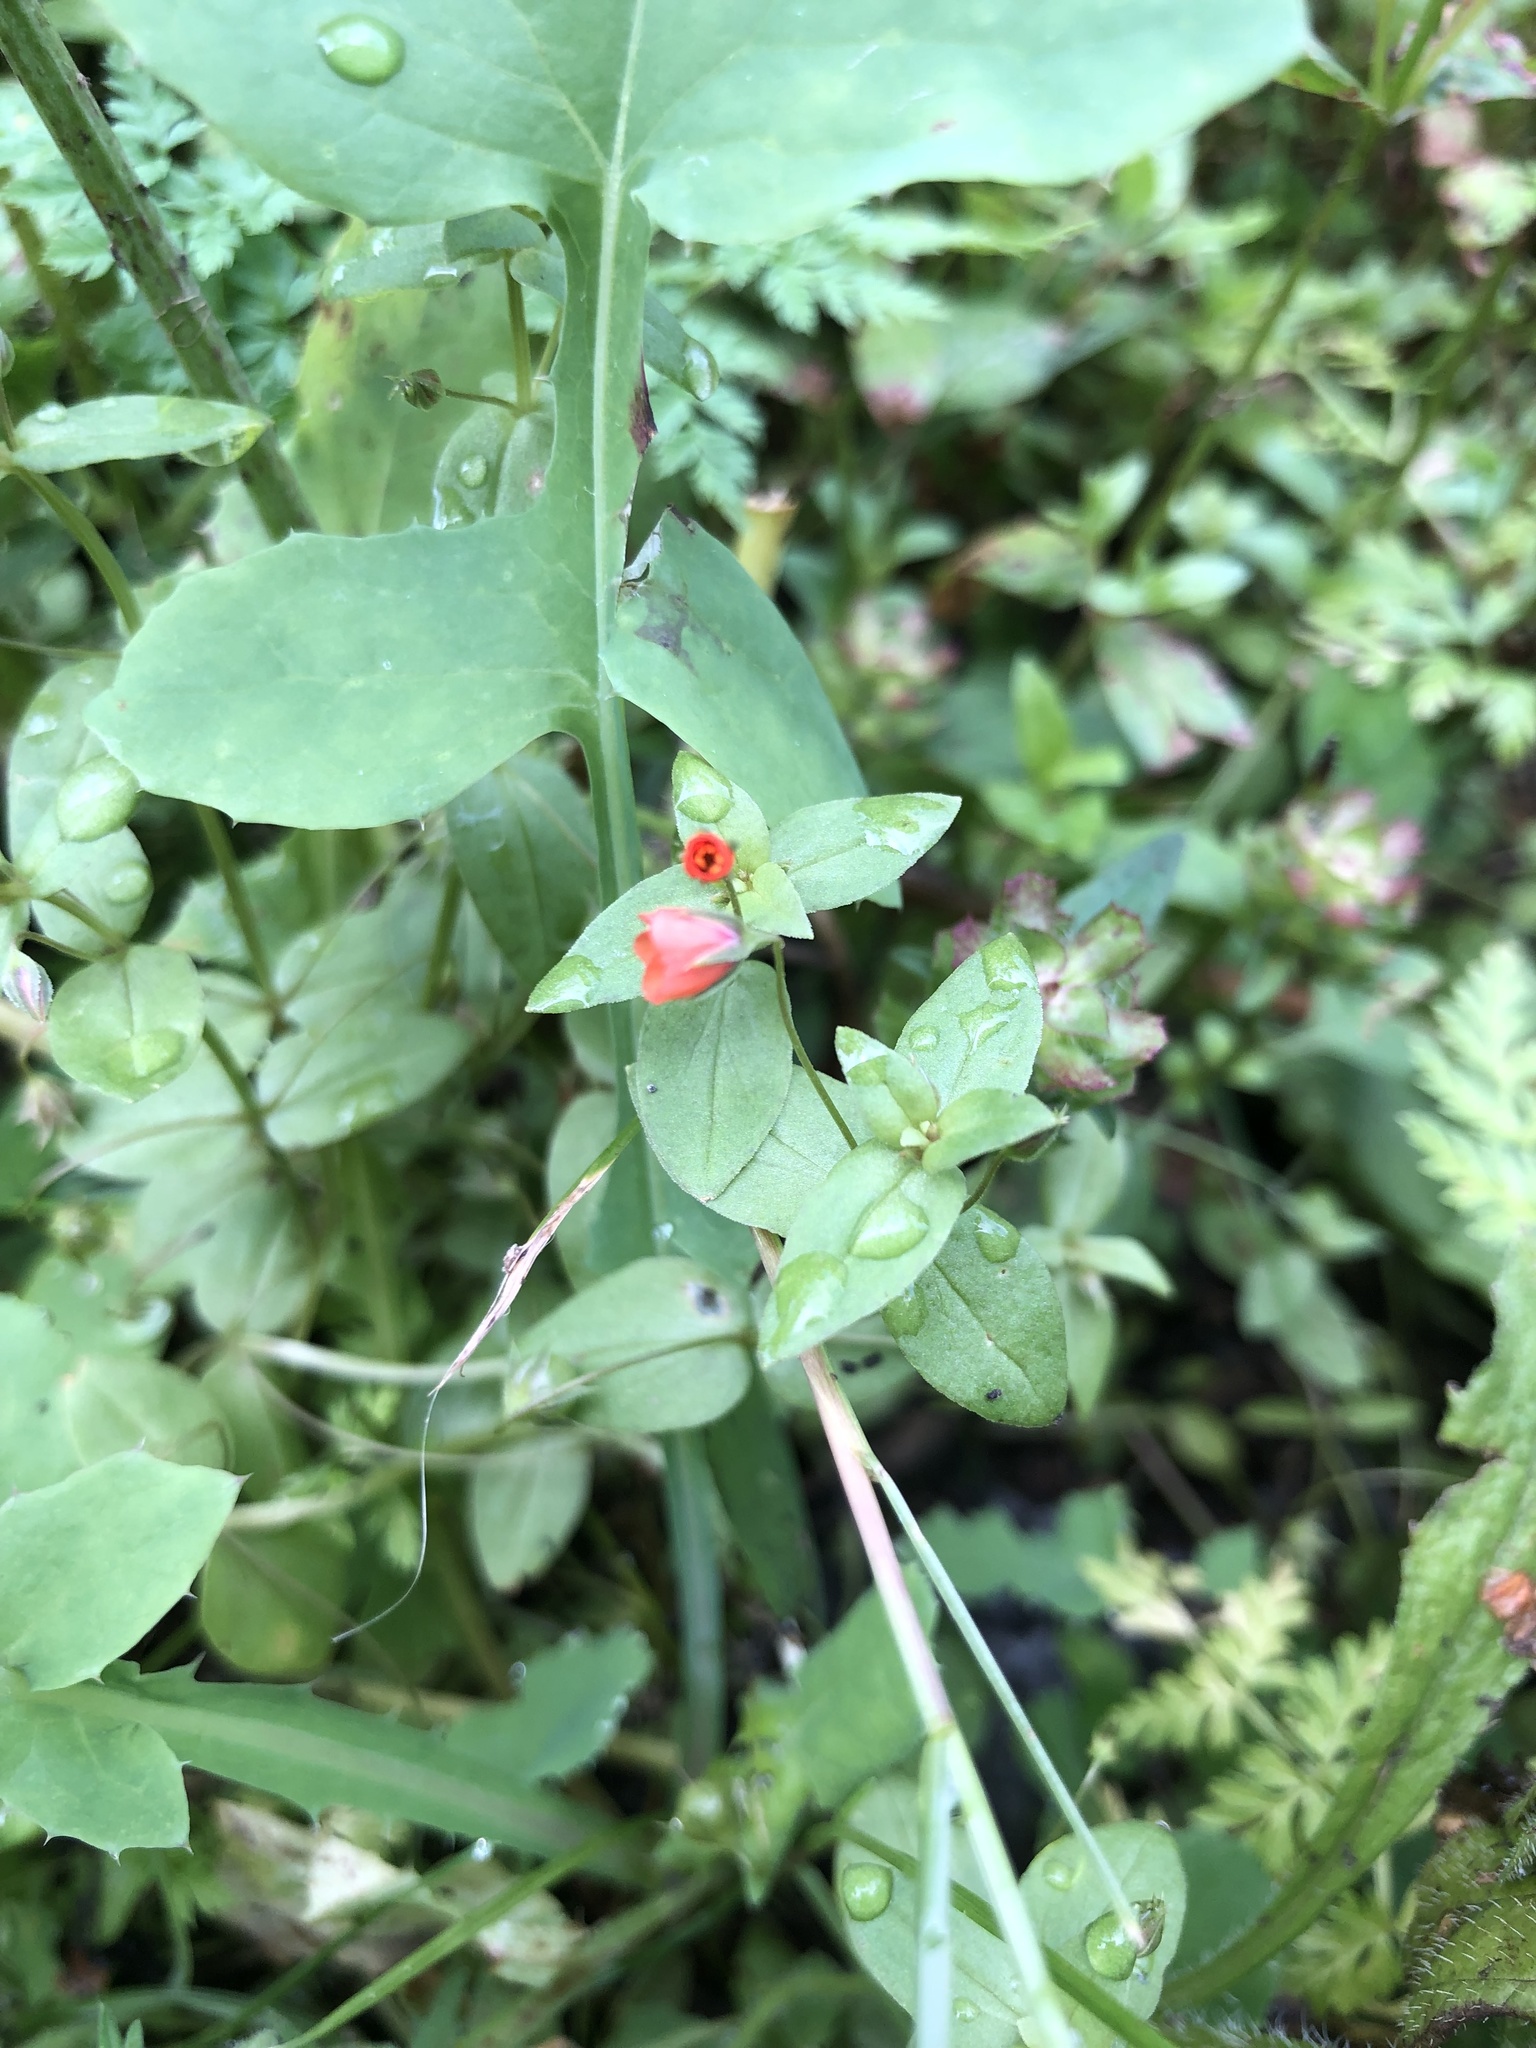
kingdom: Plantae
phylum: Tracheophyta
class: Magnoliopsida
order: Ericales
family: Primulaceae
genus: Lysimachia
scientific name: Lysimachia arvensis
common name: Scarlet pimpernel
